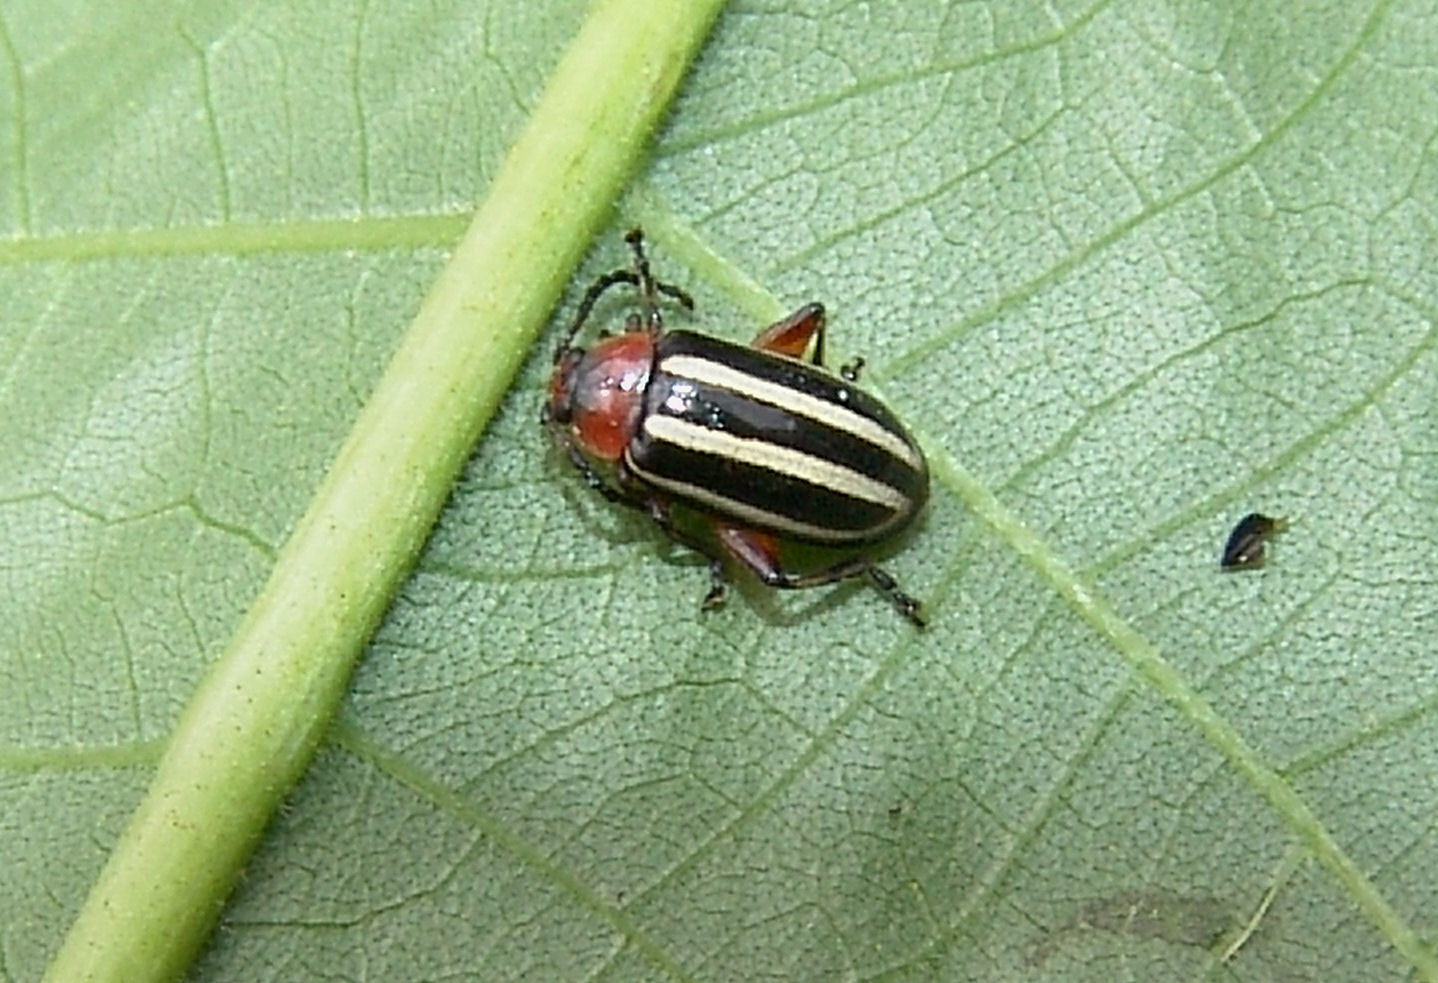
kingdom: Animalia
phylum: Arthropoda
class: Insecta
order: Coleoptera
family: Chrysomelidae
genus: Disonycha
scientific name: Disonycha glabrata
